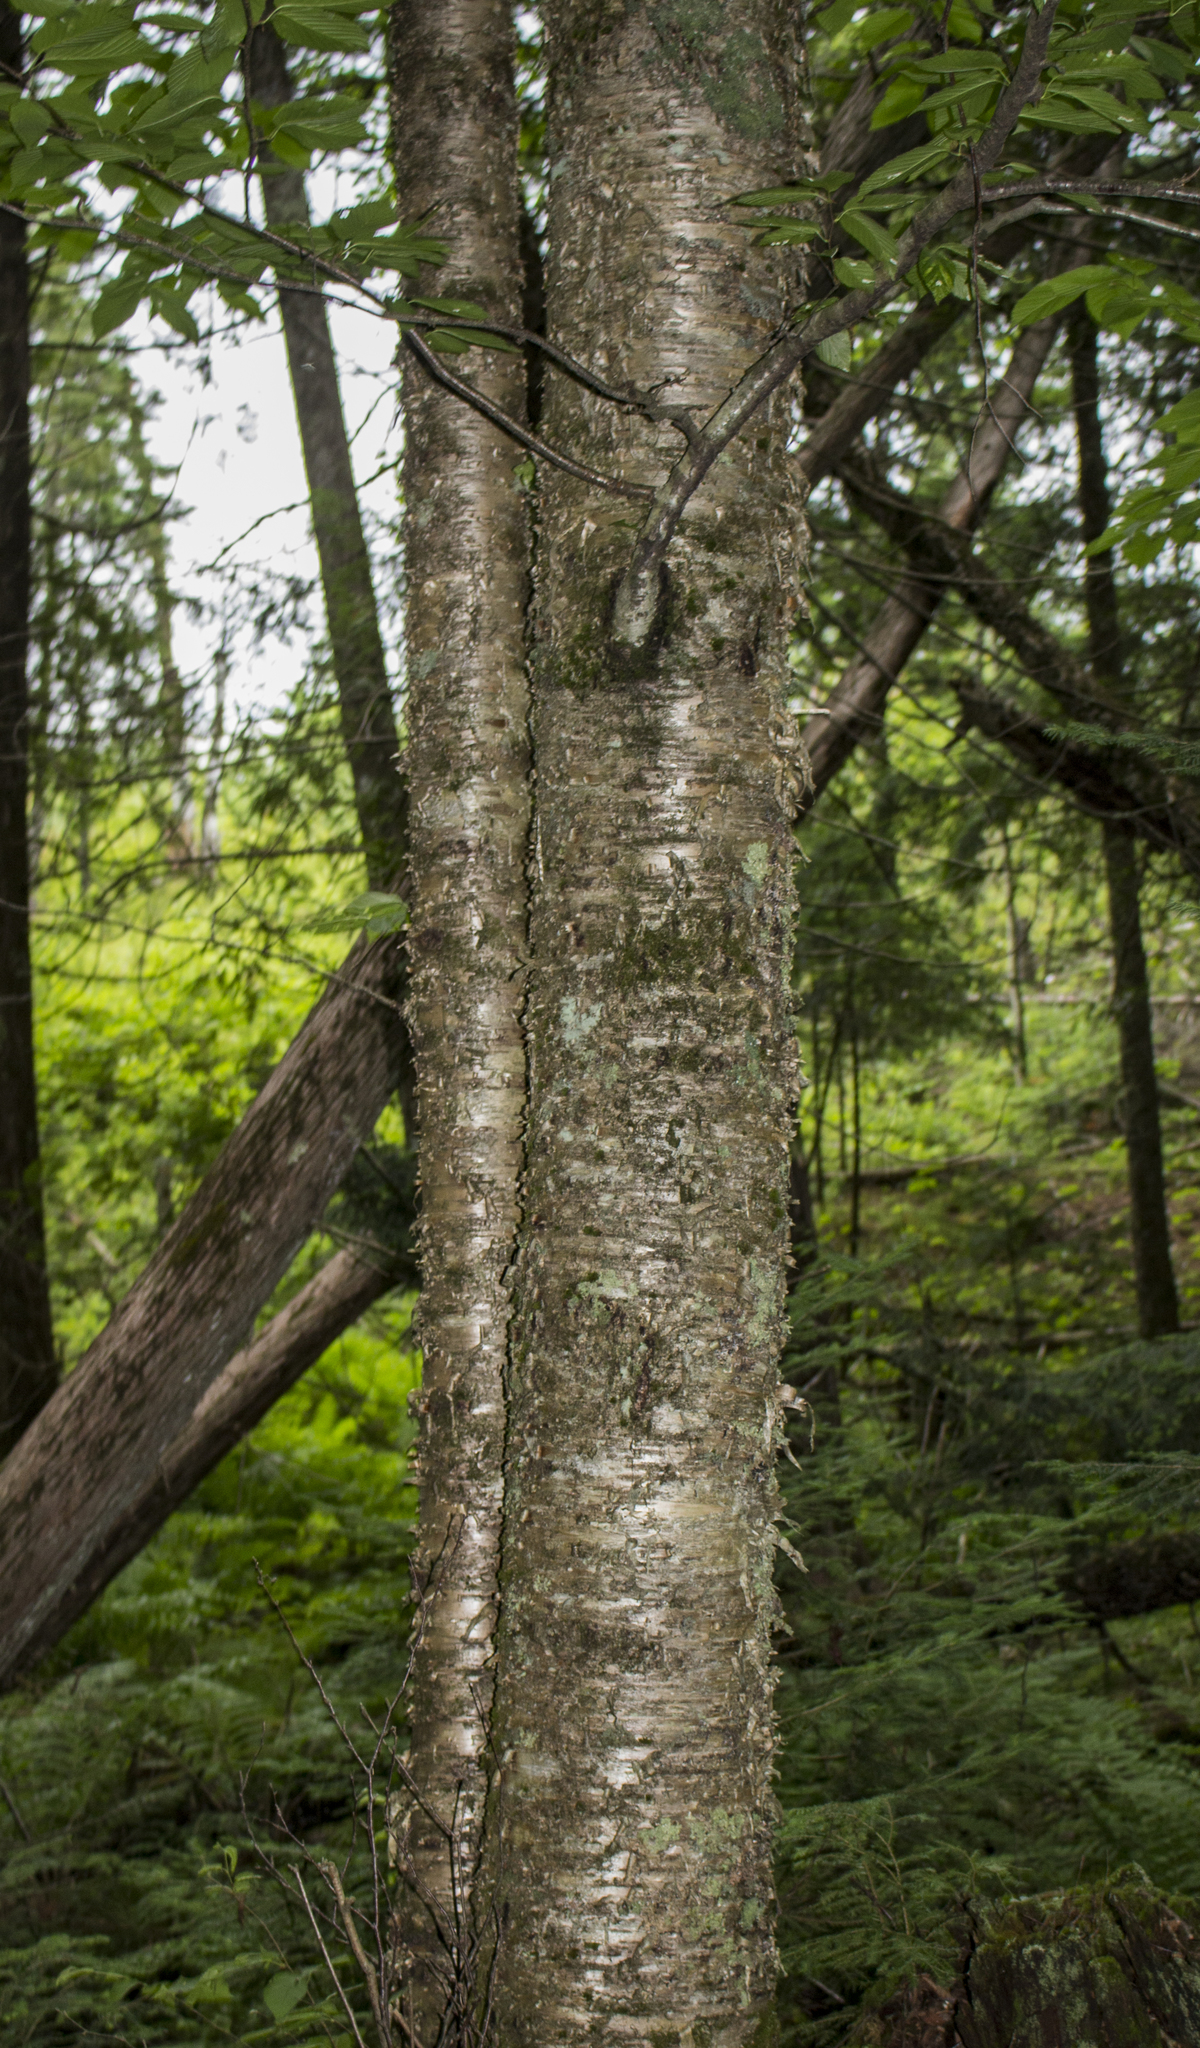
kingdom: Plantae
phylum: Tracheophyta
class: Magnoliopsida
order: Fagales
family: Betulaceae
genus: Betula
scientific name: Betula alleghaniensis
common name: Yellow birch
